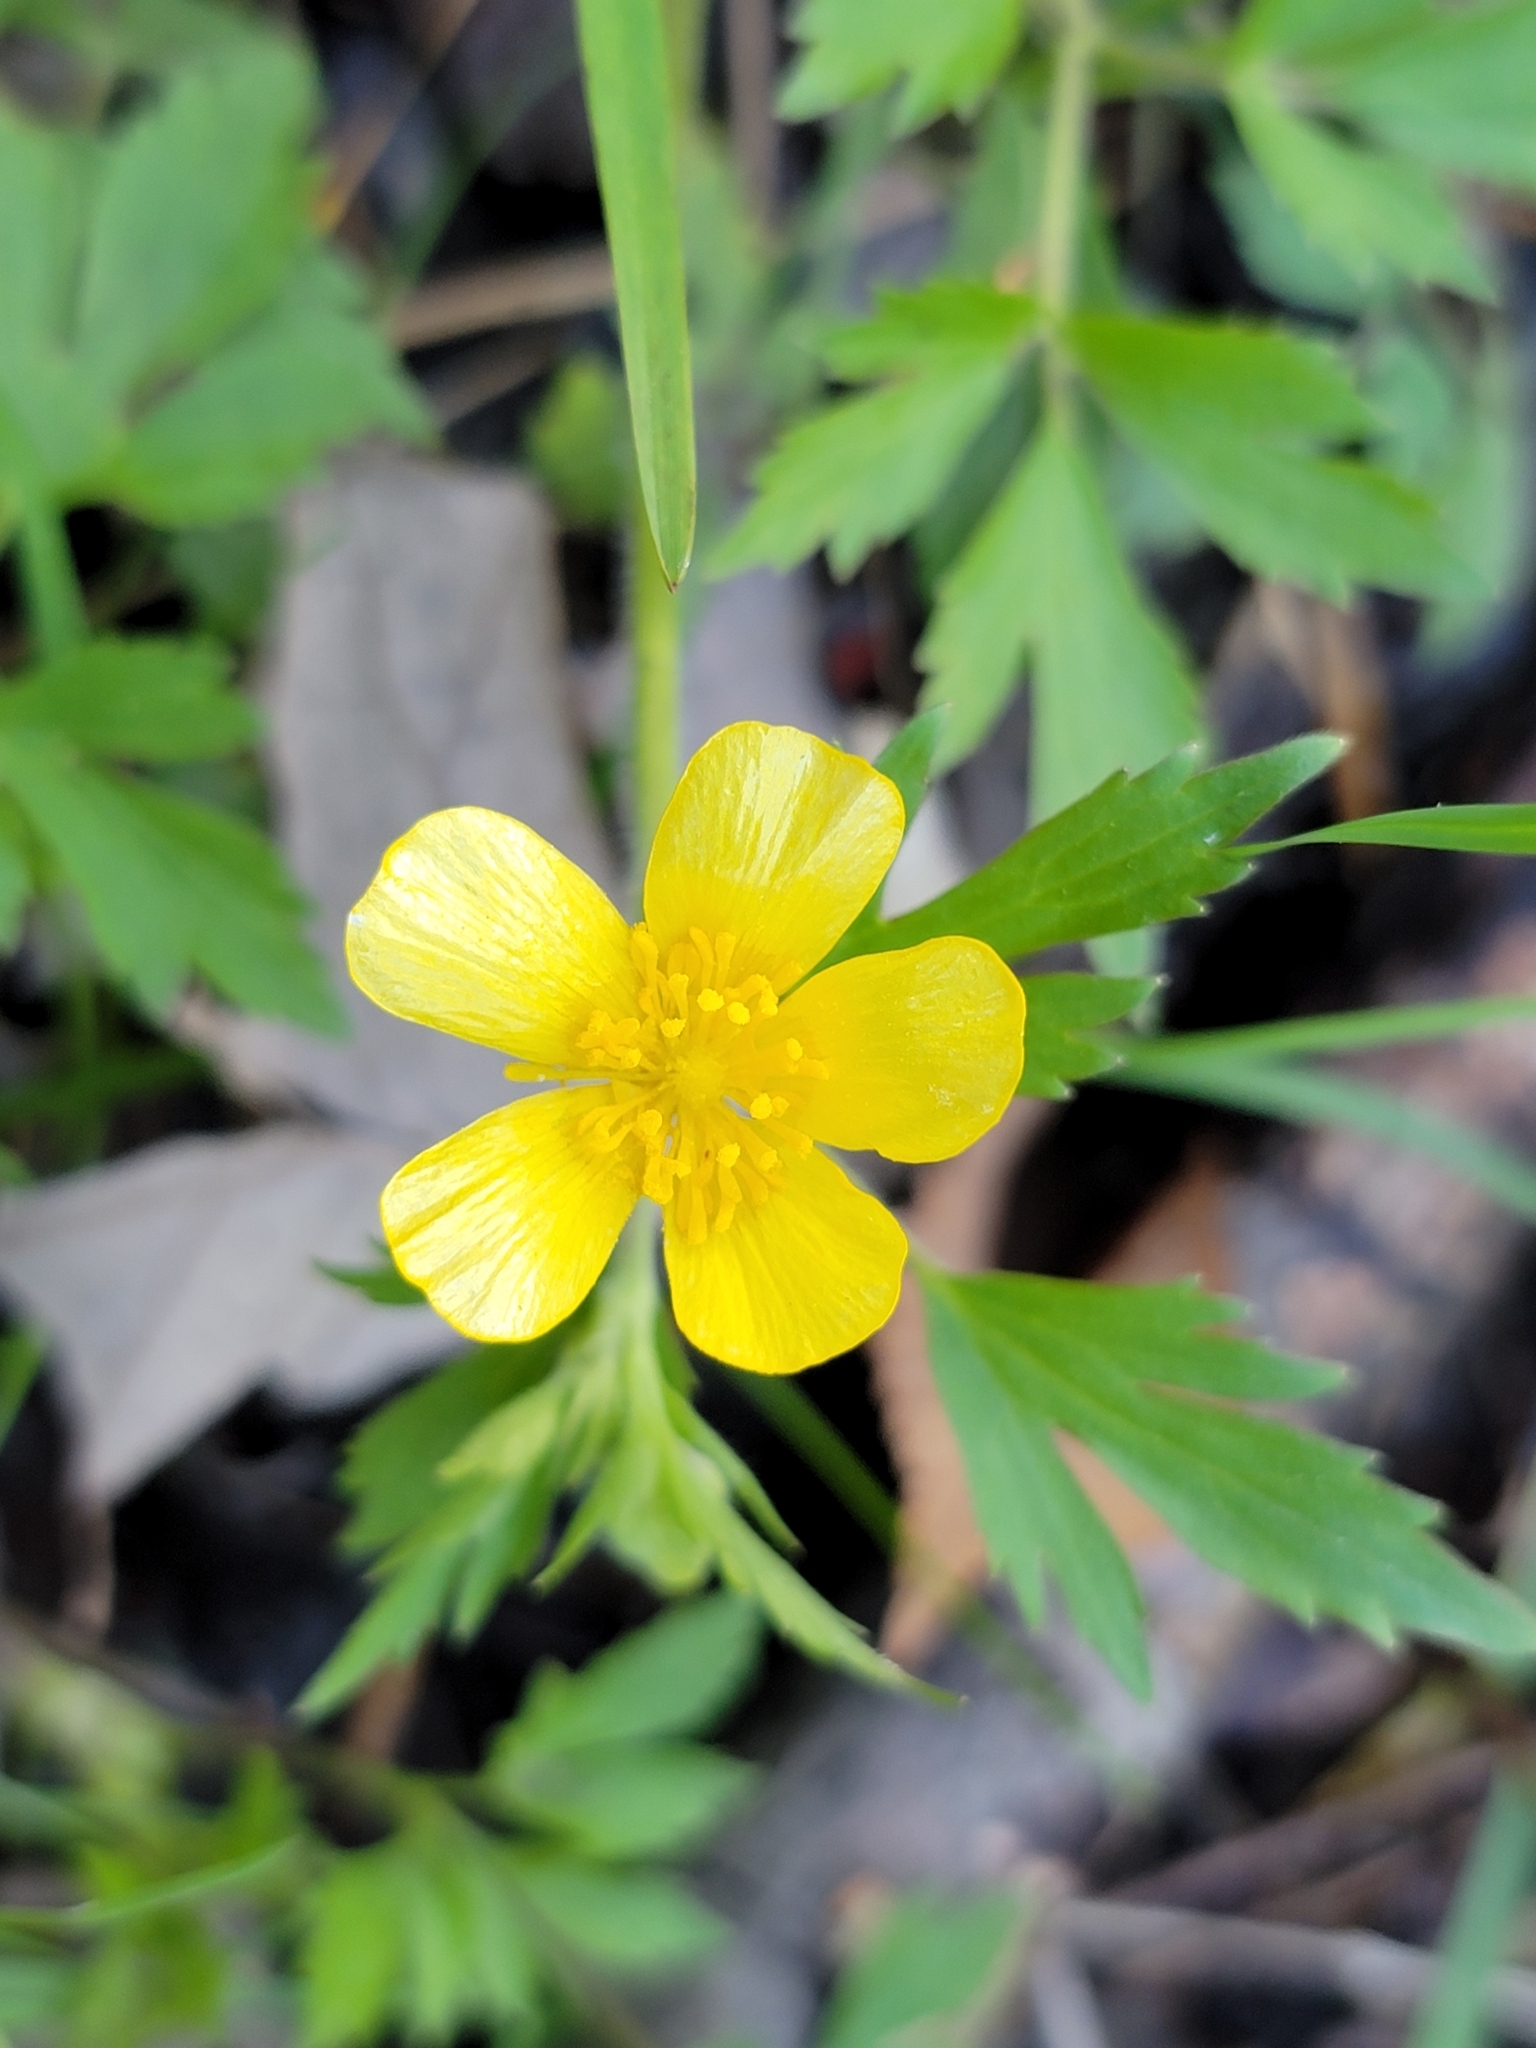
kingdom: Plantae
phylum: Tracheophyta
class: Magnoliopsida
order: Ranunculales
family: Ranunculaceae
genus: Ranunculus
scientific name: Ranunculus hispidus
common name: Bristly buttercup
